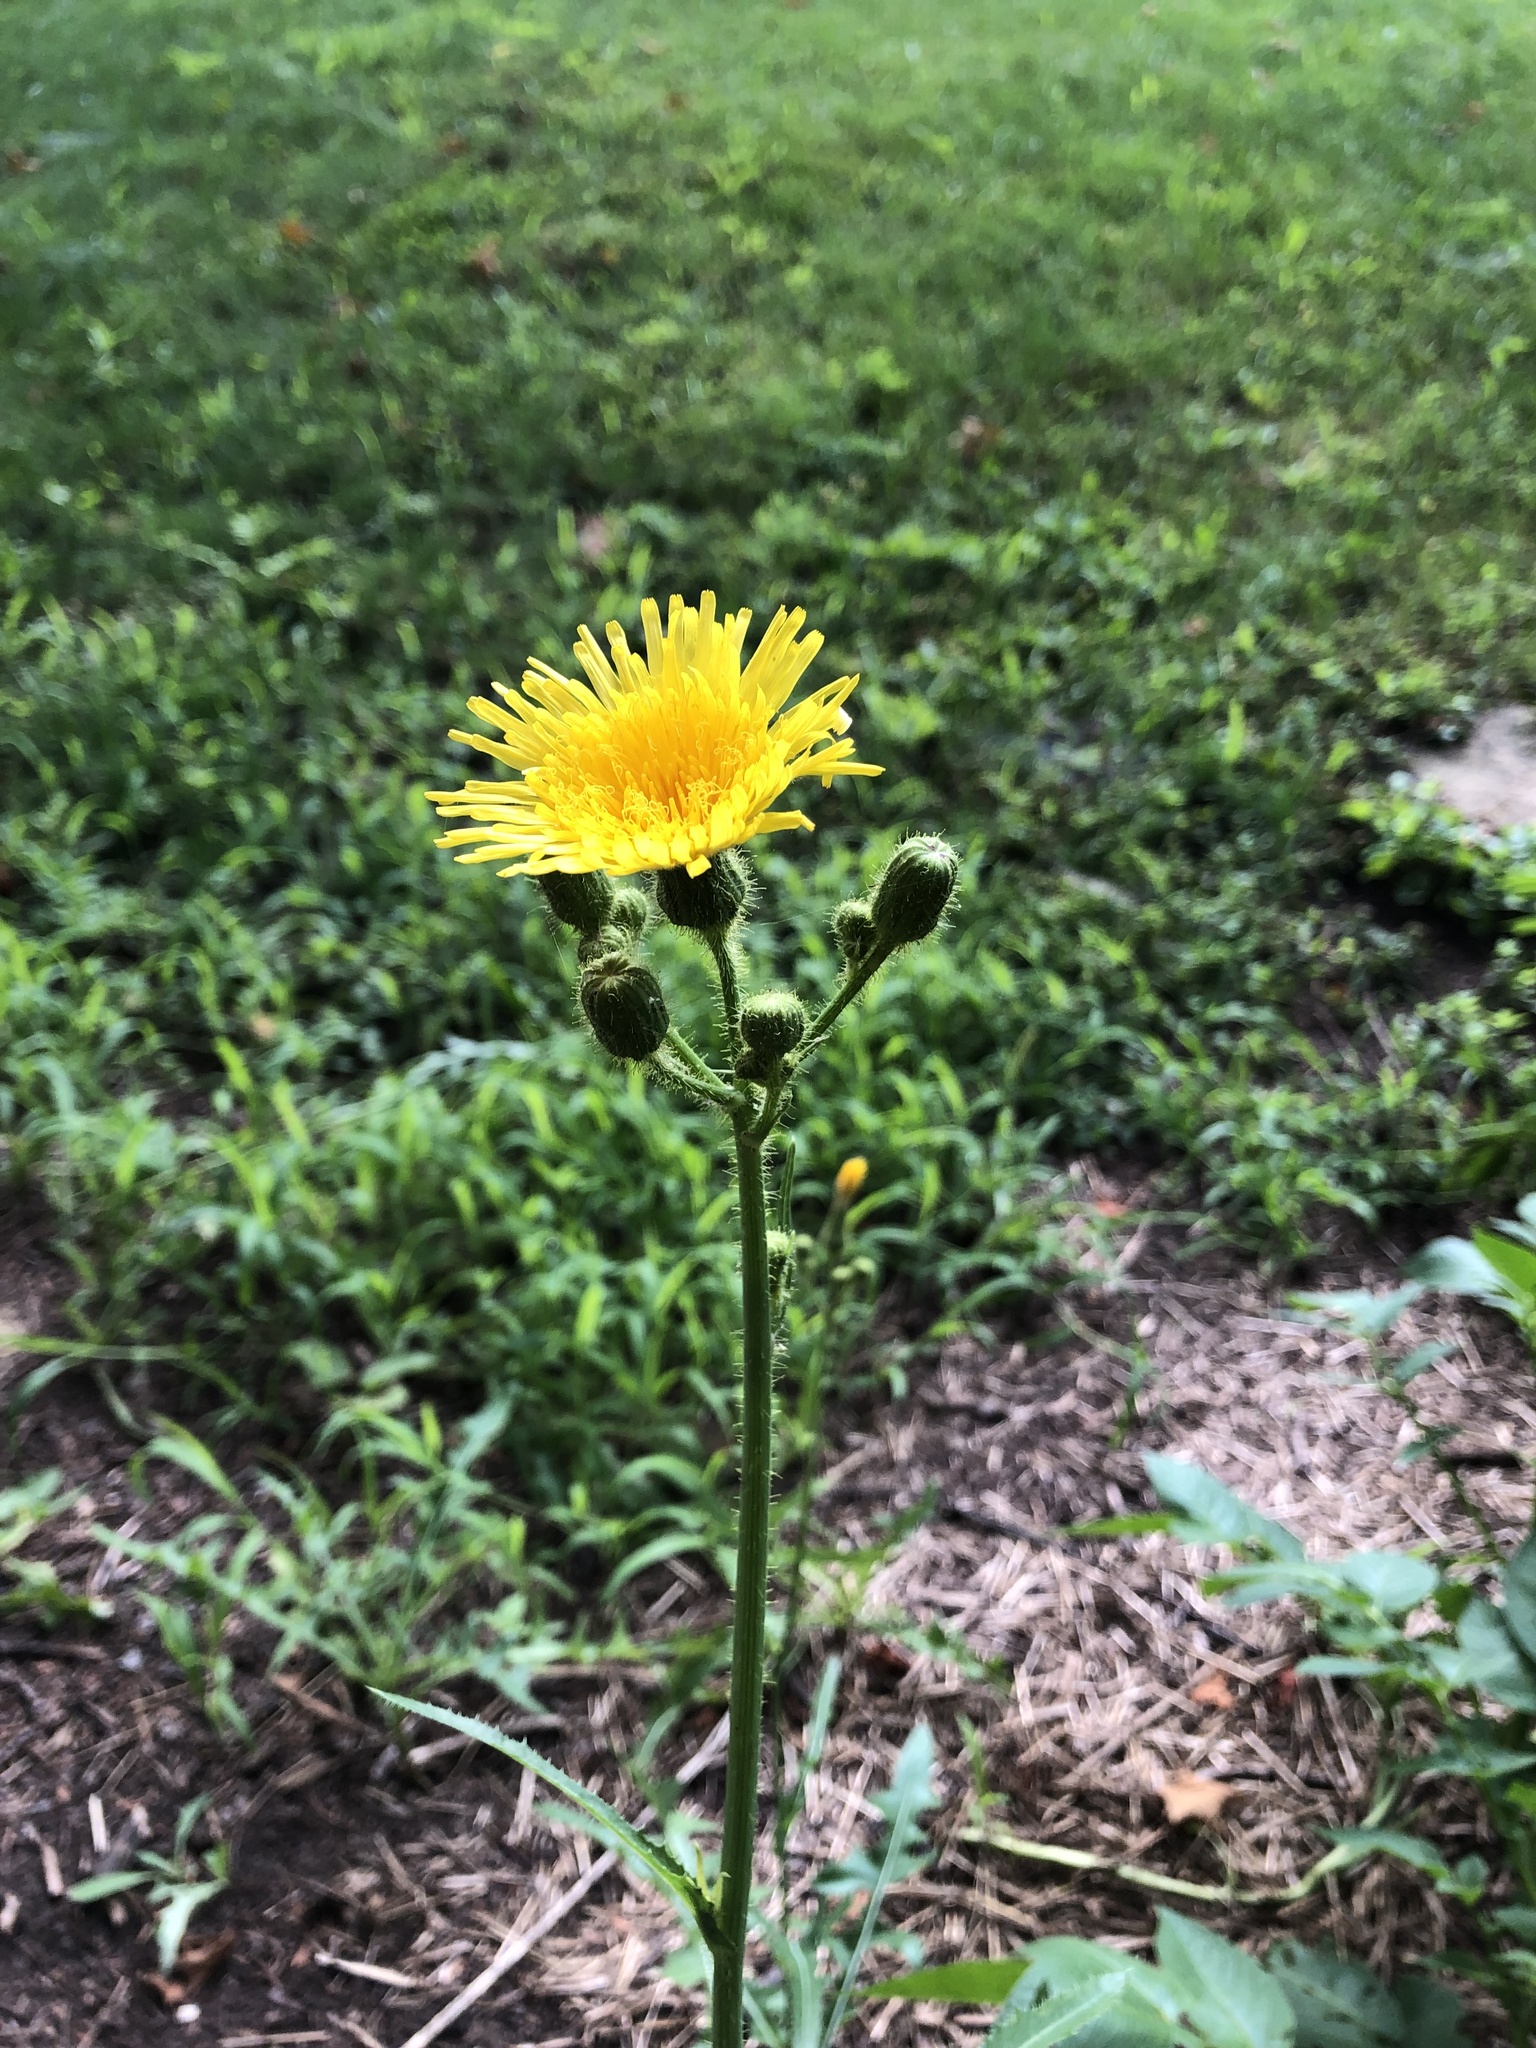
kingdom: Plantae
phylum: Tracheophyta
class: Magnoliopsida
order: Asterales
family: Asteraceae
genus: Sonchus
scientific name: Sonchus arvensis
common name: Perennial sow-thistle
